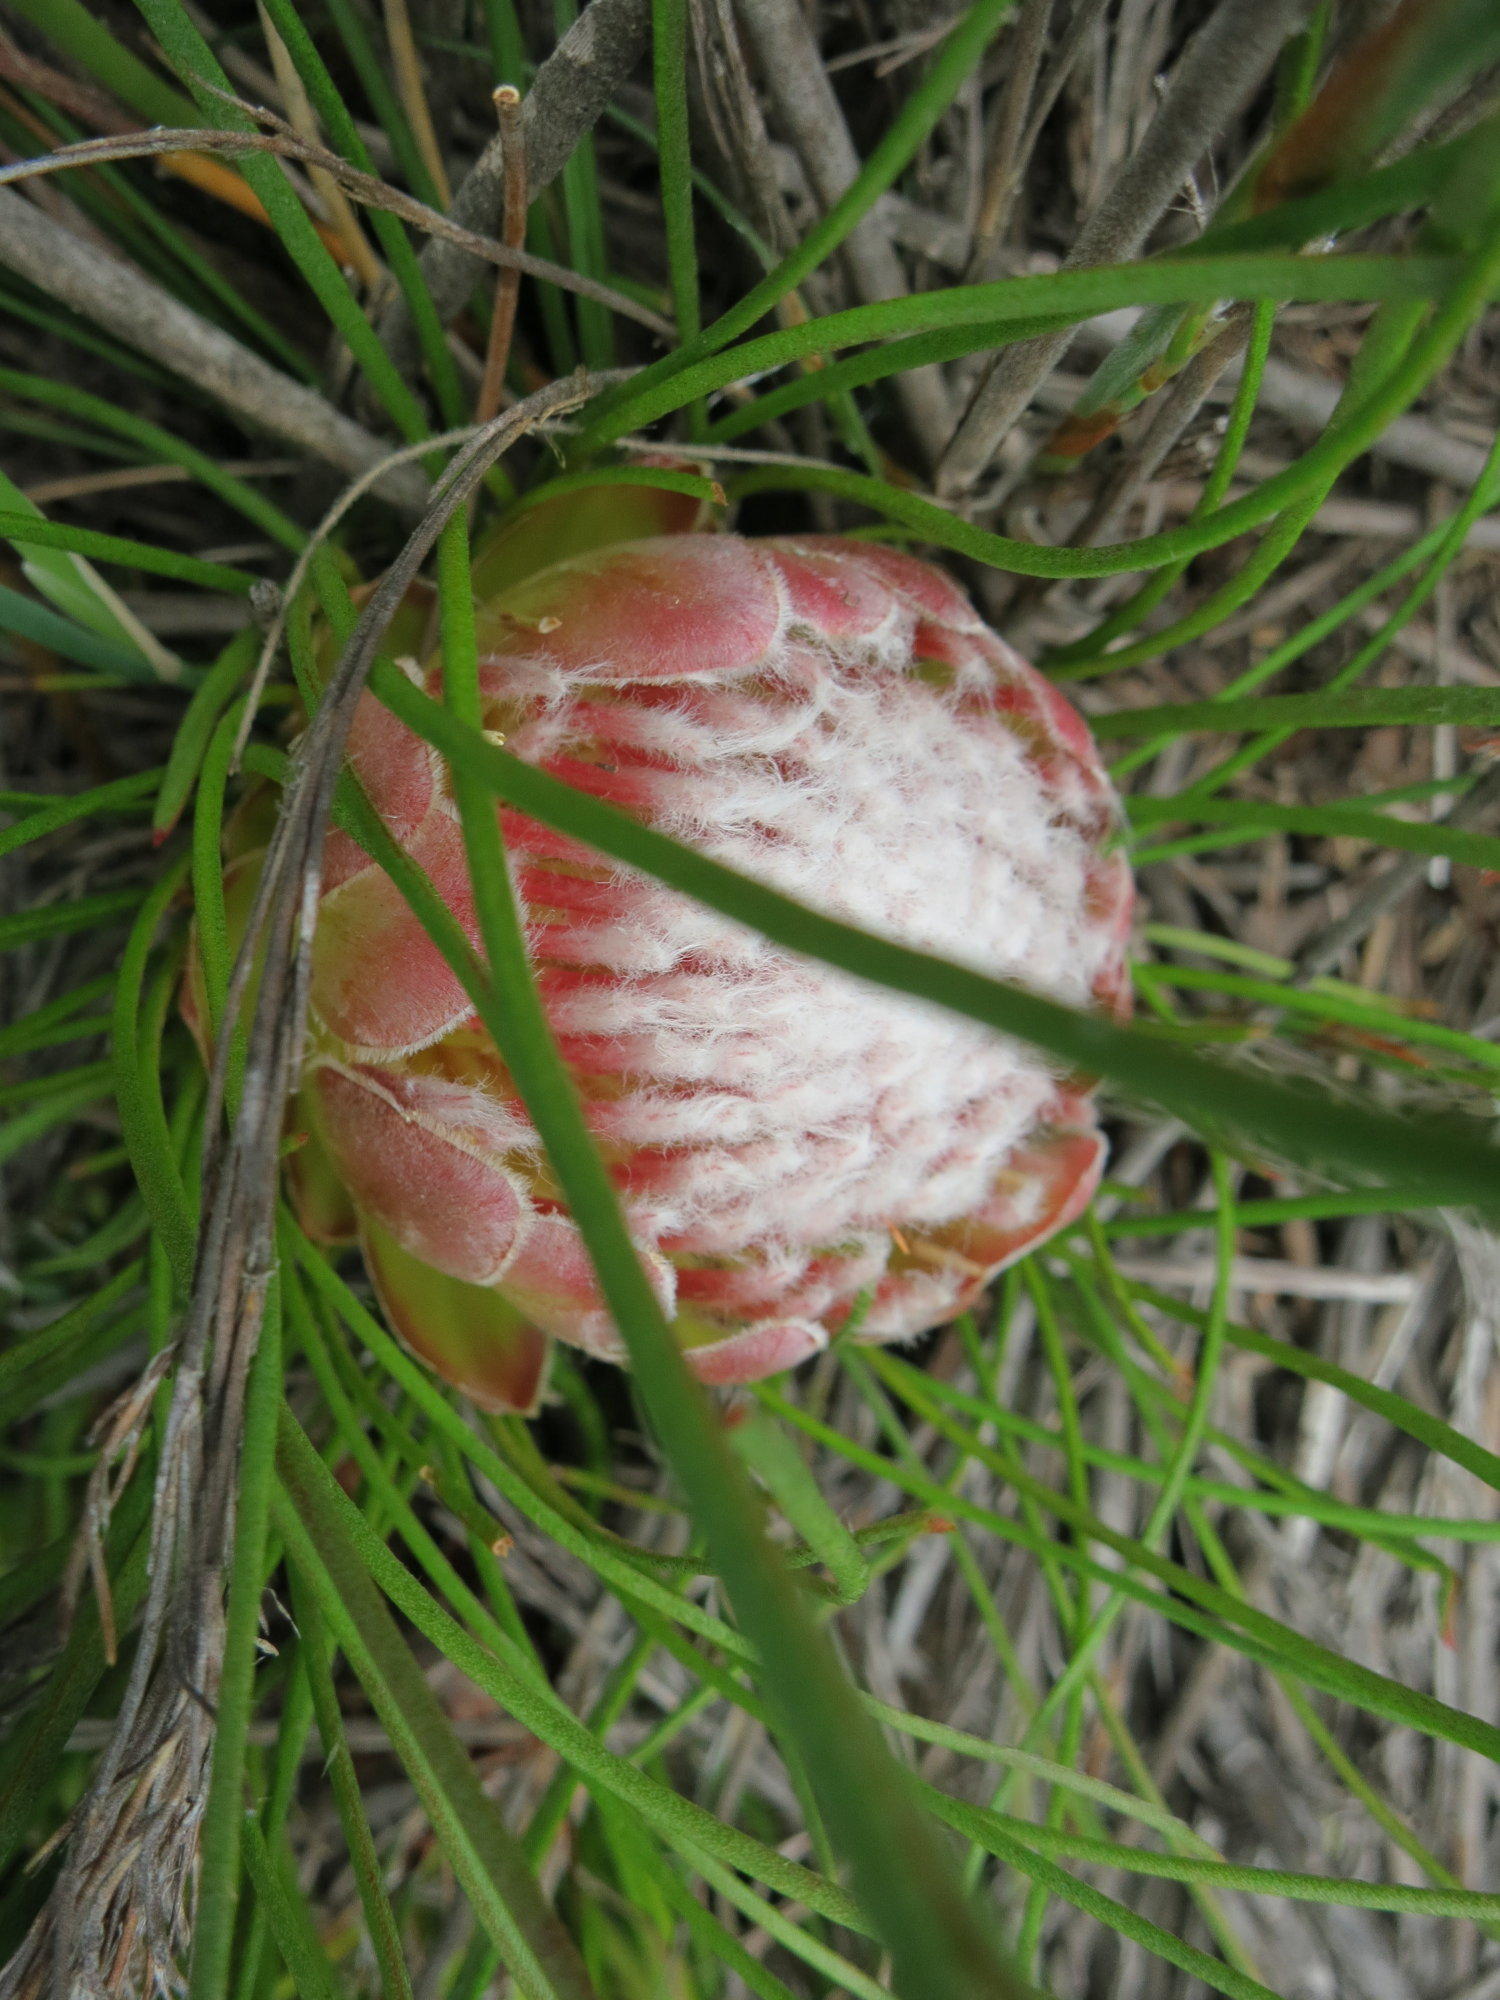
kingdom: Plantae
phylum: Tracheophyta
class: Magnoliopsida
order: Proteales
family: Proteaceae
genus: Protea
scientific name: Protea montana
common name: Swartberg sugarbush
